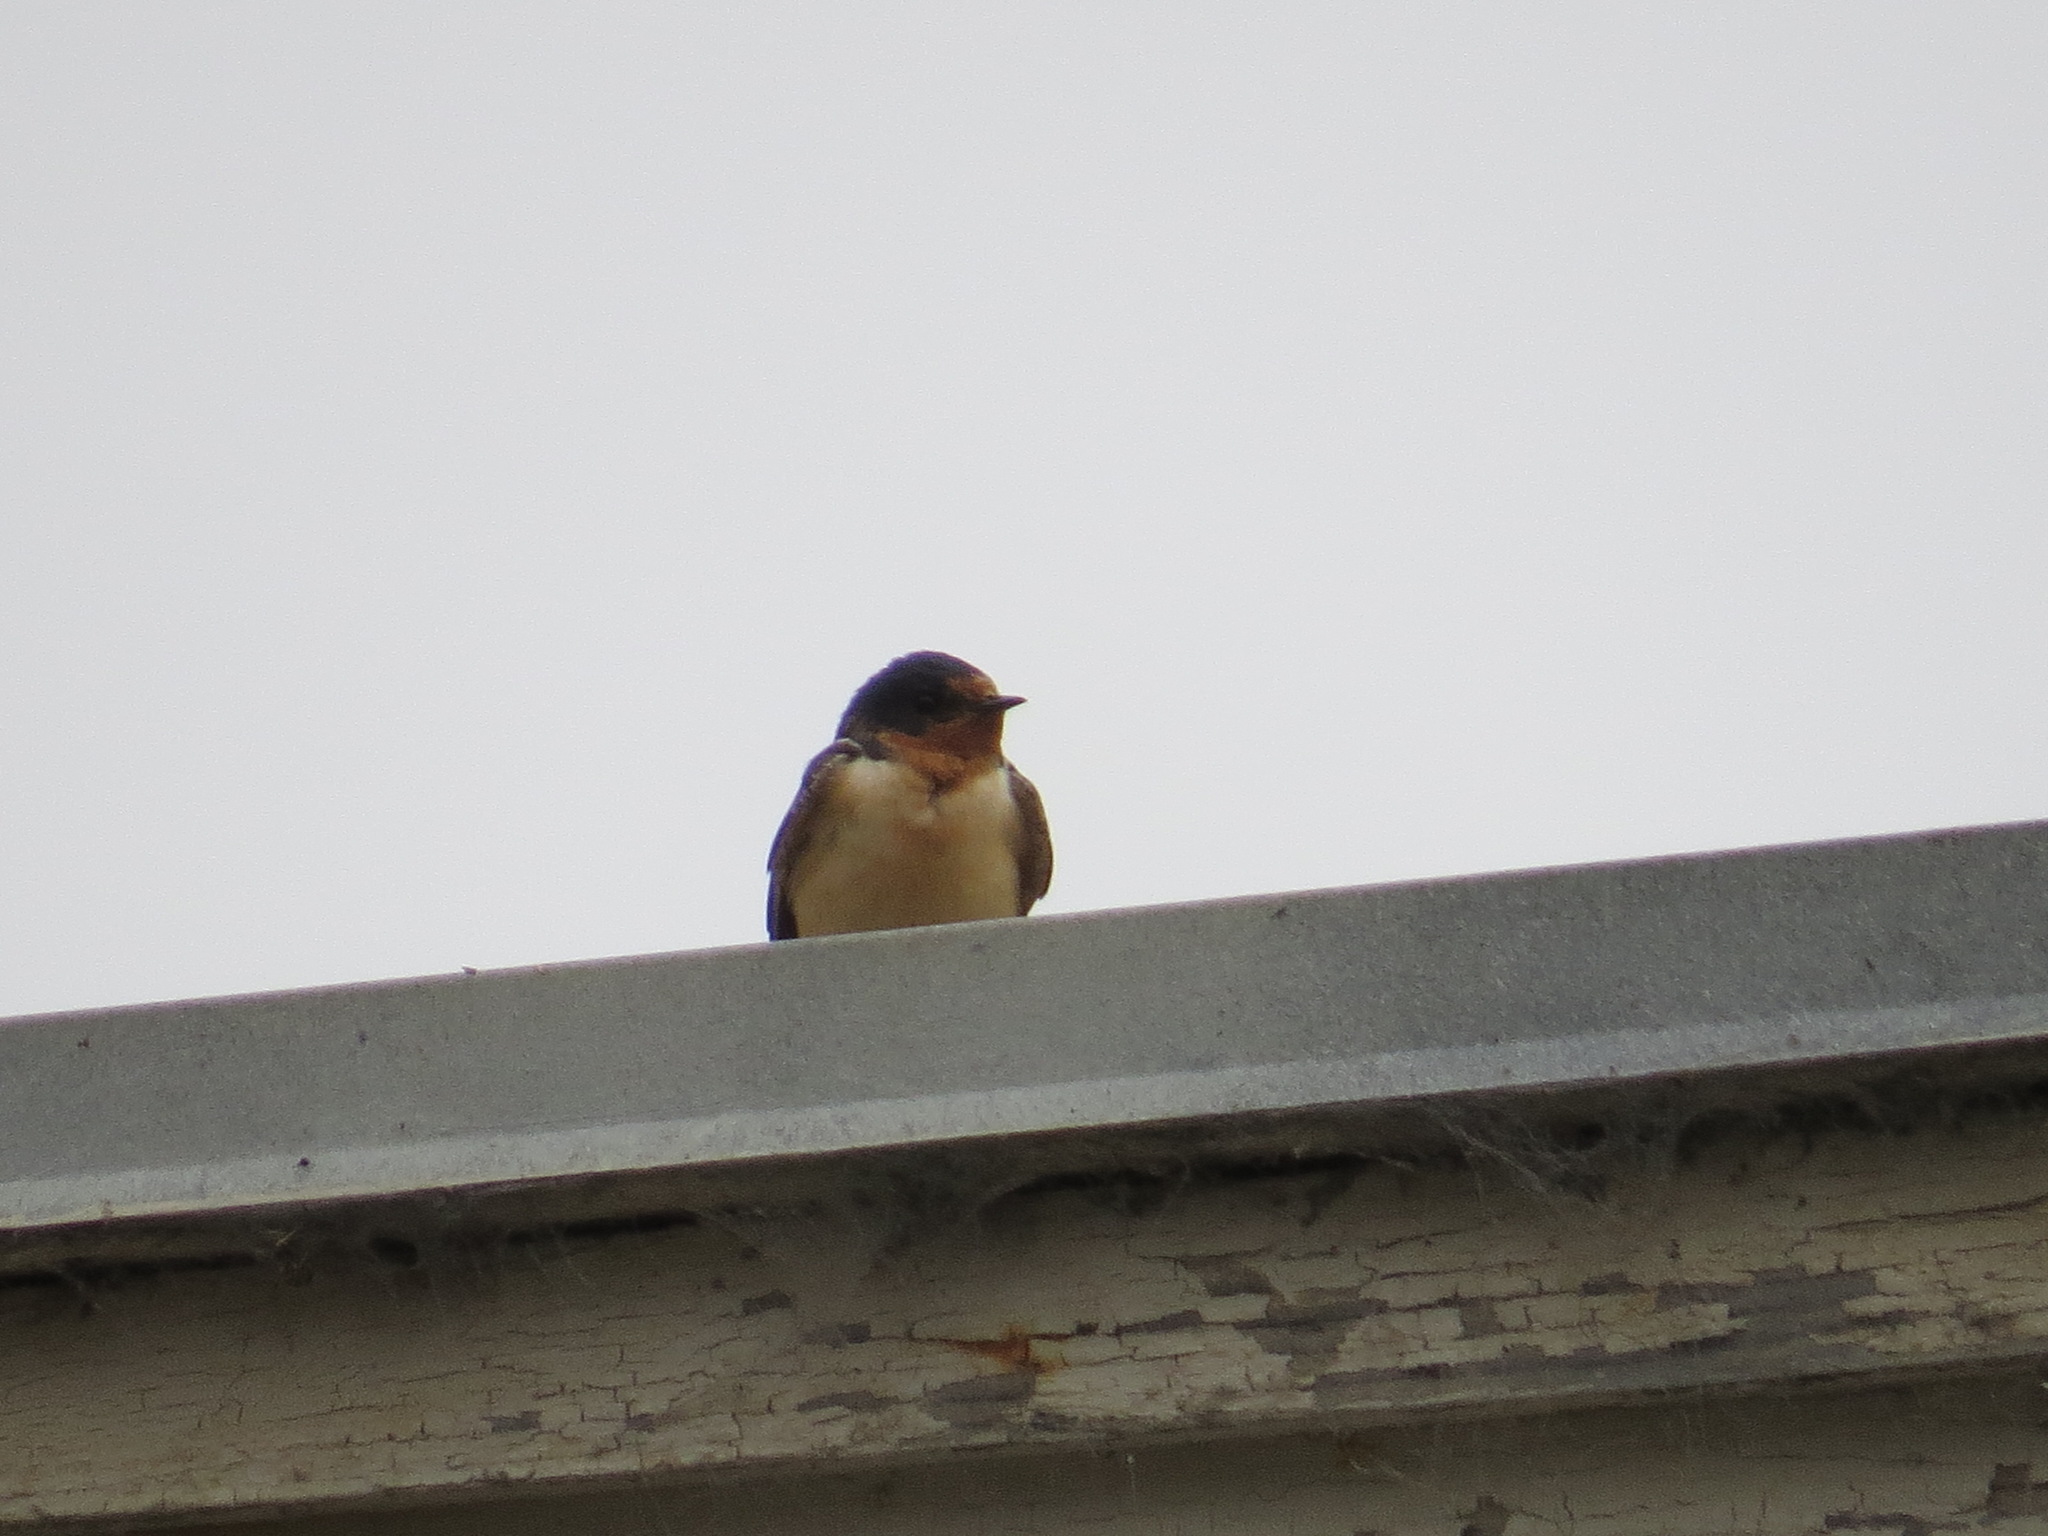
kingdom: Animalia
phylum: Chordata
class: Aves
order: Passeriformes
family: Hirundinidae
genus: Hirundo
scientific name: Hirundo rustica
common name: Barn swallow
